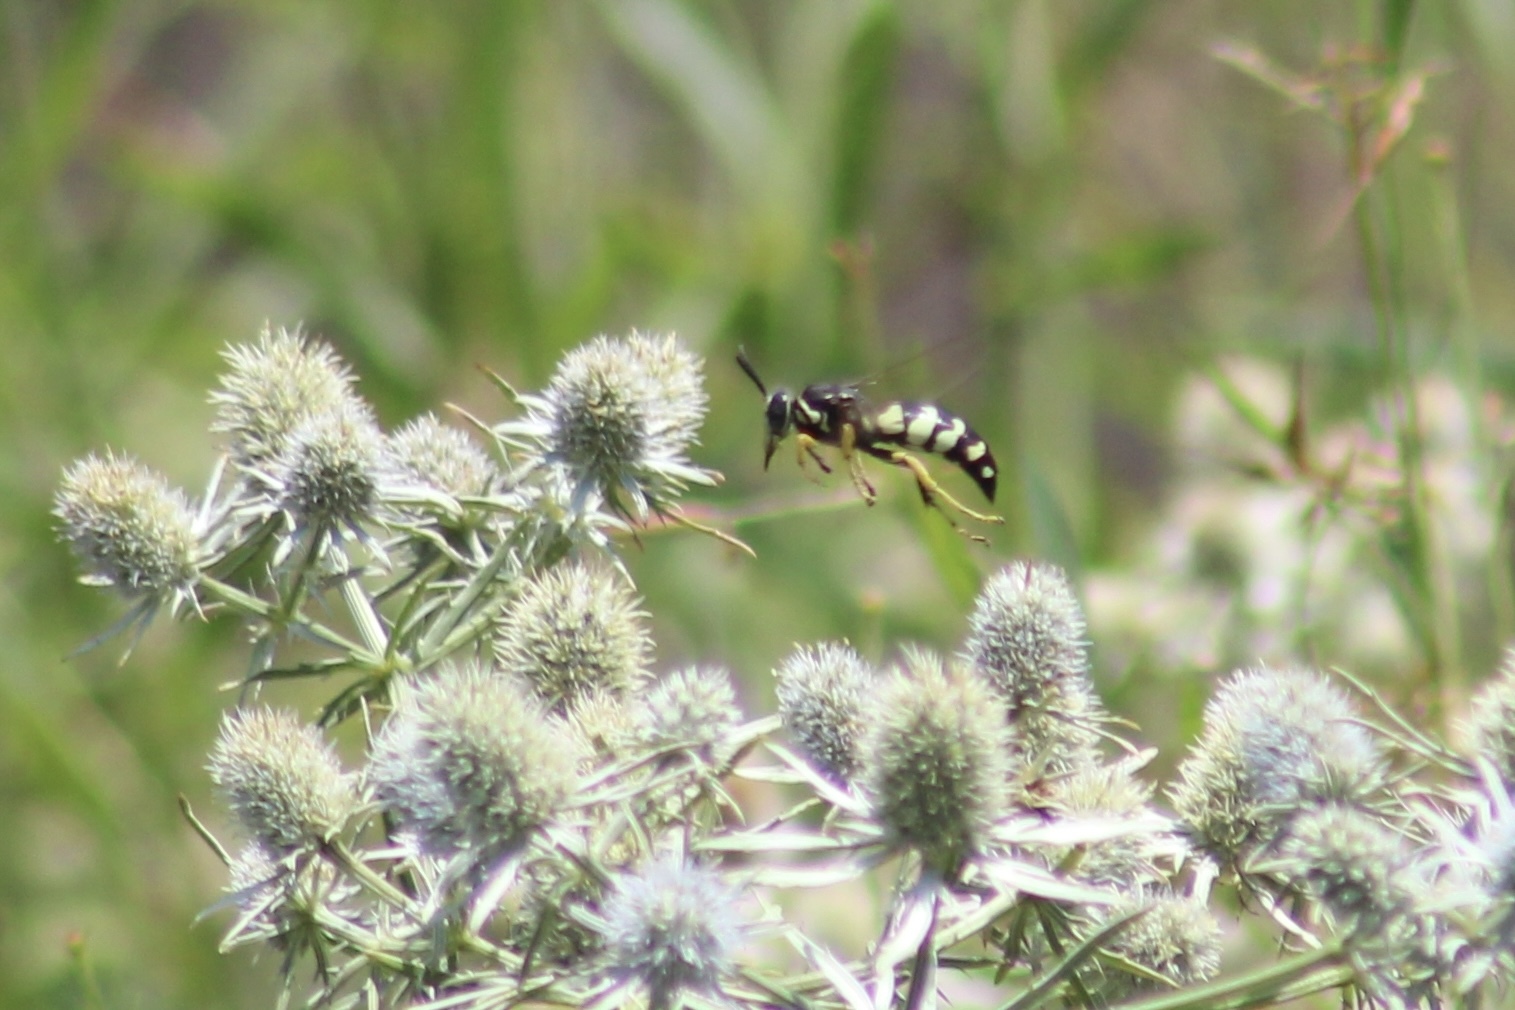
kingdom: Animalia
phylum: Arthropoda
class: Insecta
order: Hymenoptera
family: Crabronidae
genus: Stictia
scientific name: Stictia carolina
